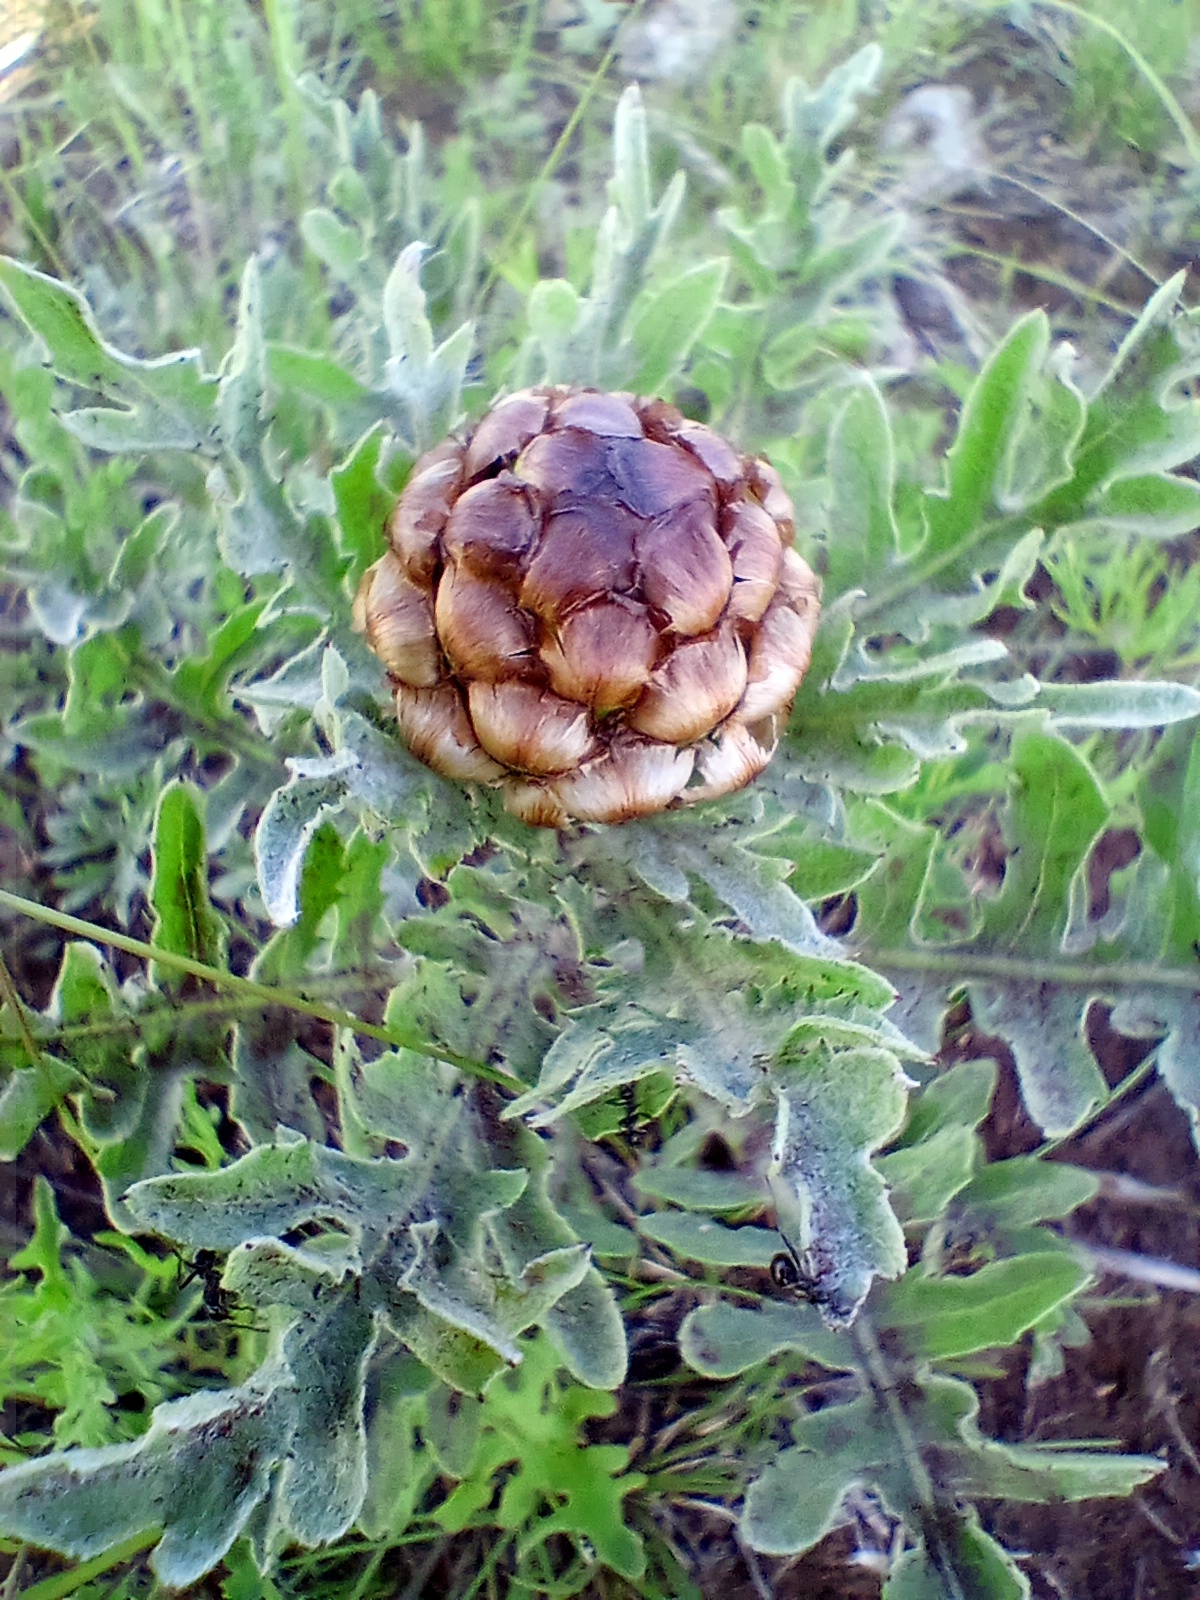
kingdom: Plantae
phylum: Tracheophyta
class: Magnoliopsida
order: Asterales
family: Asteraceae
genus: Leuzea
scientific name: Leuzea uniflora
